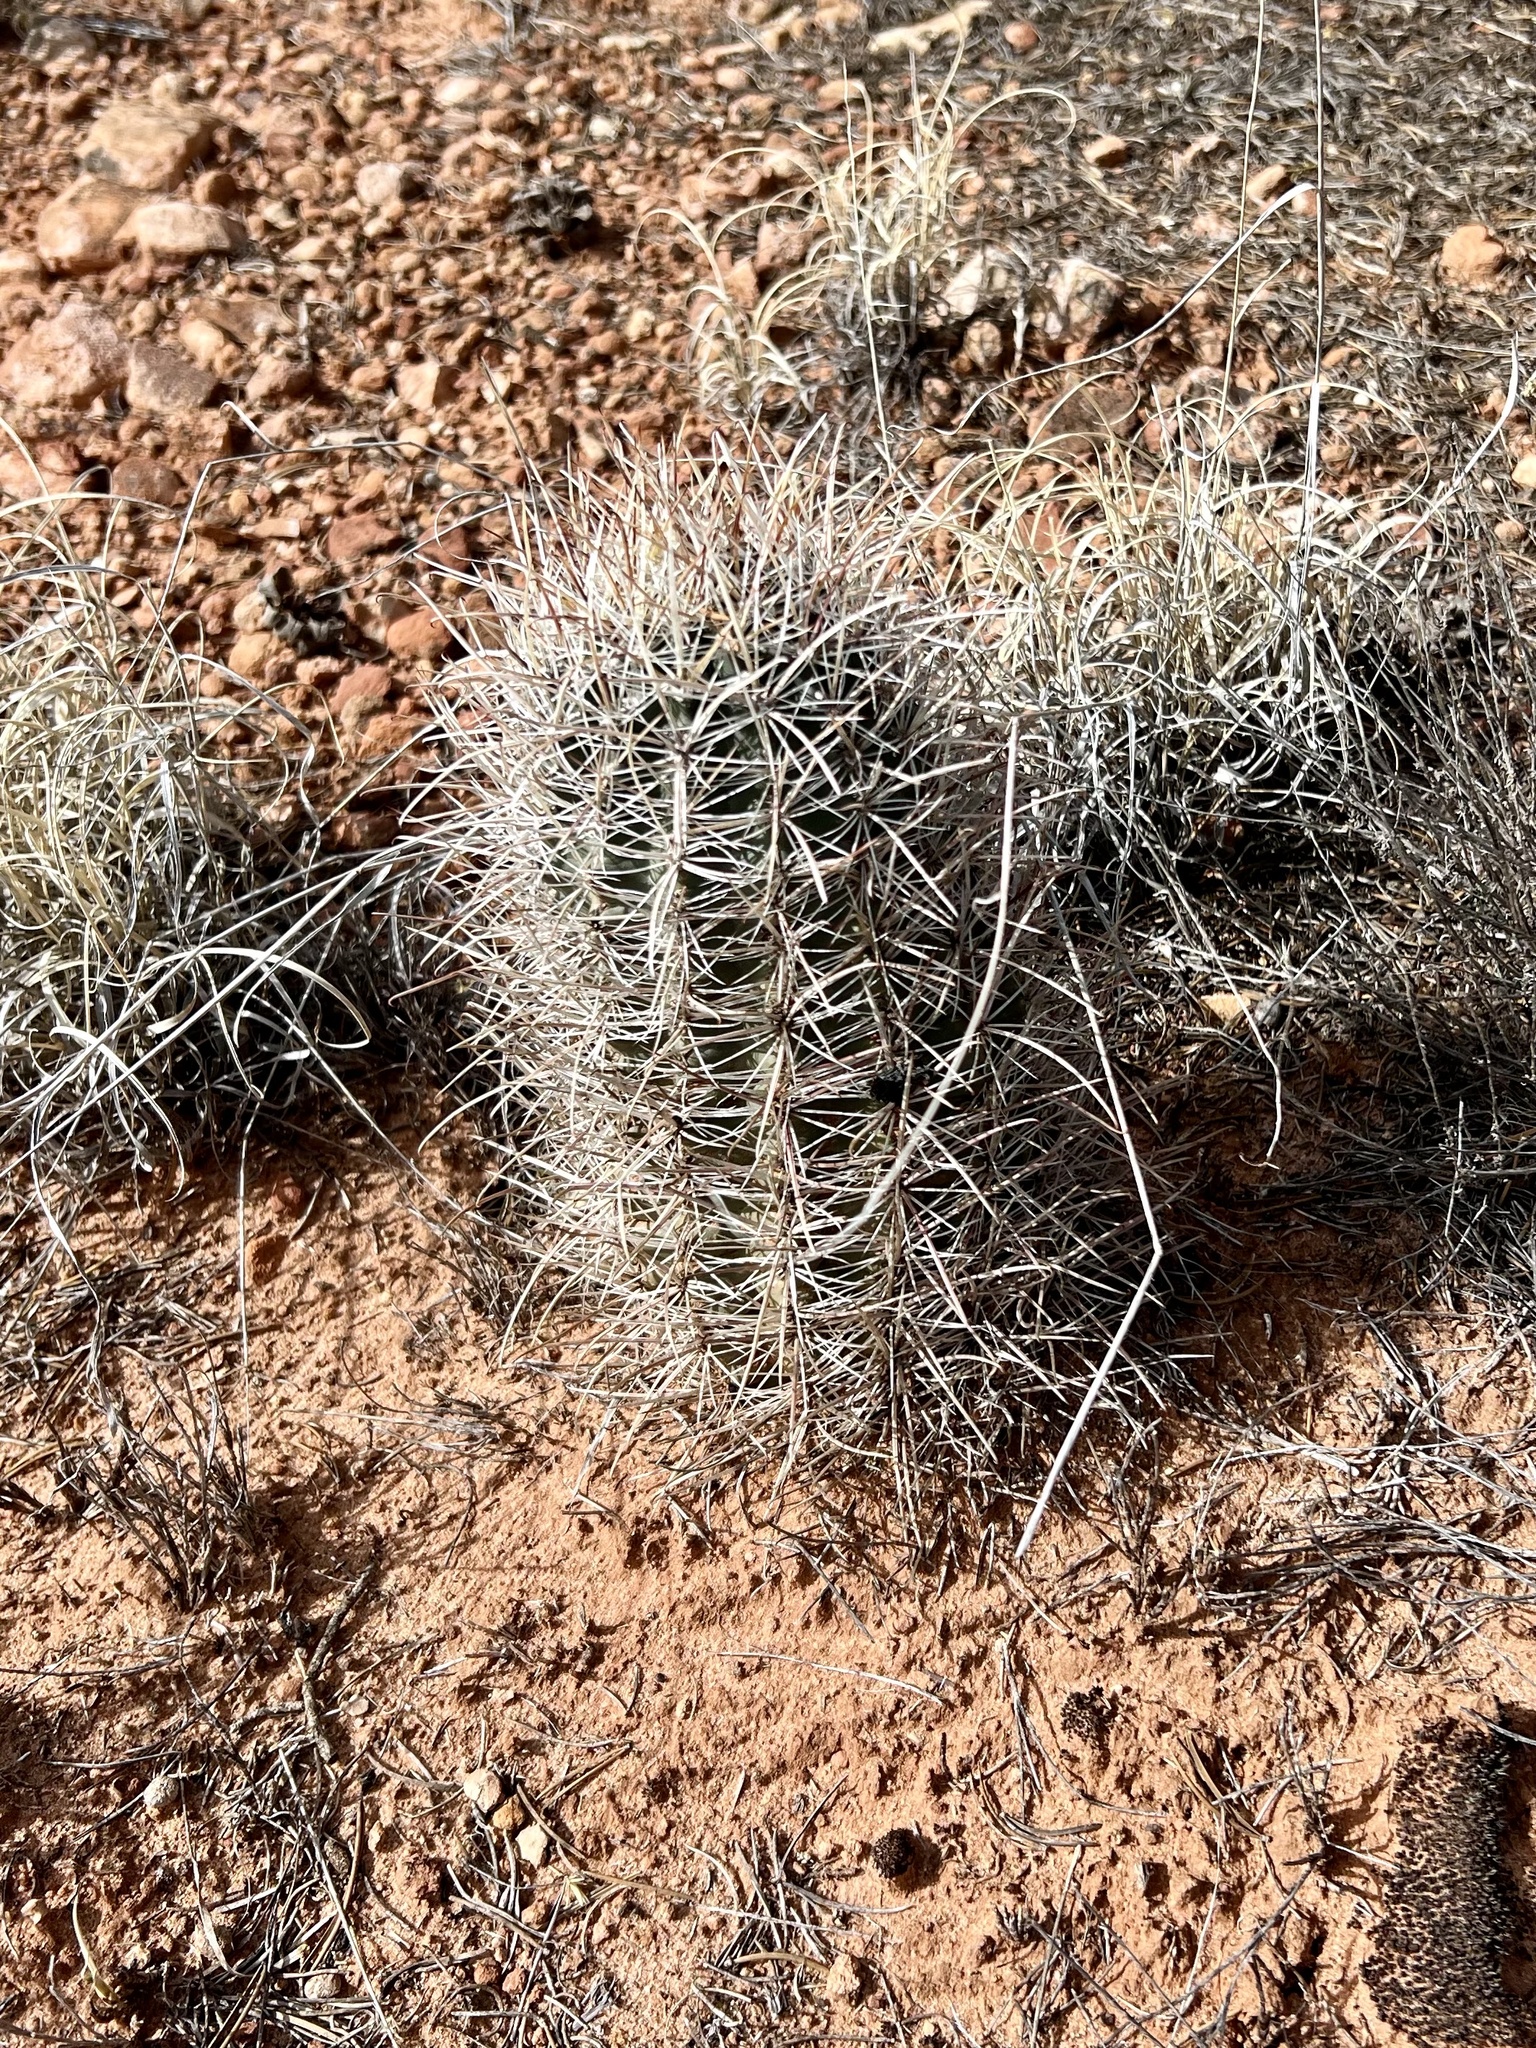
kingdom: Plantae
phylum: Tracheophyta
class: Magnoliopsida
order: Caryophyllales
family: Cactaceae
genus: Sclerocactus
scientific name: Sclerocactus parviflorus
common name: Small-flower fishhook cactus
